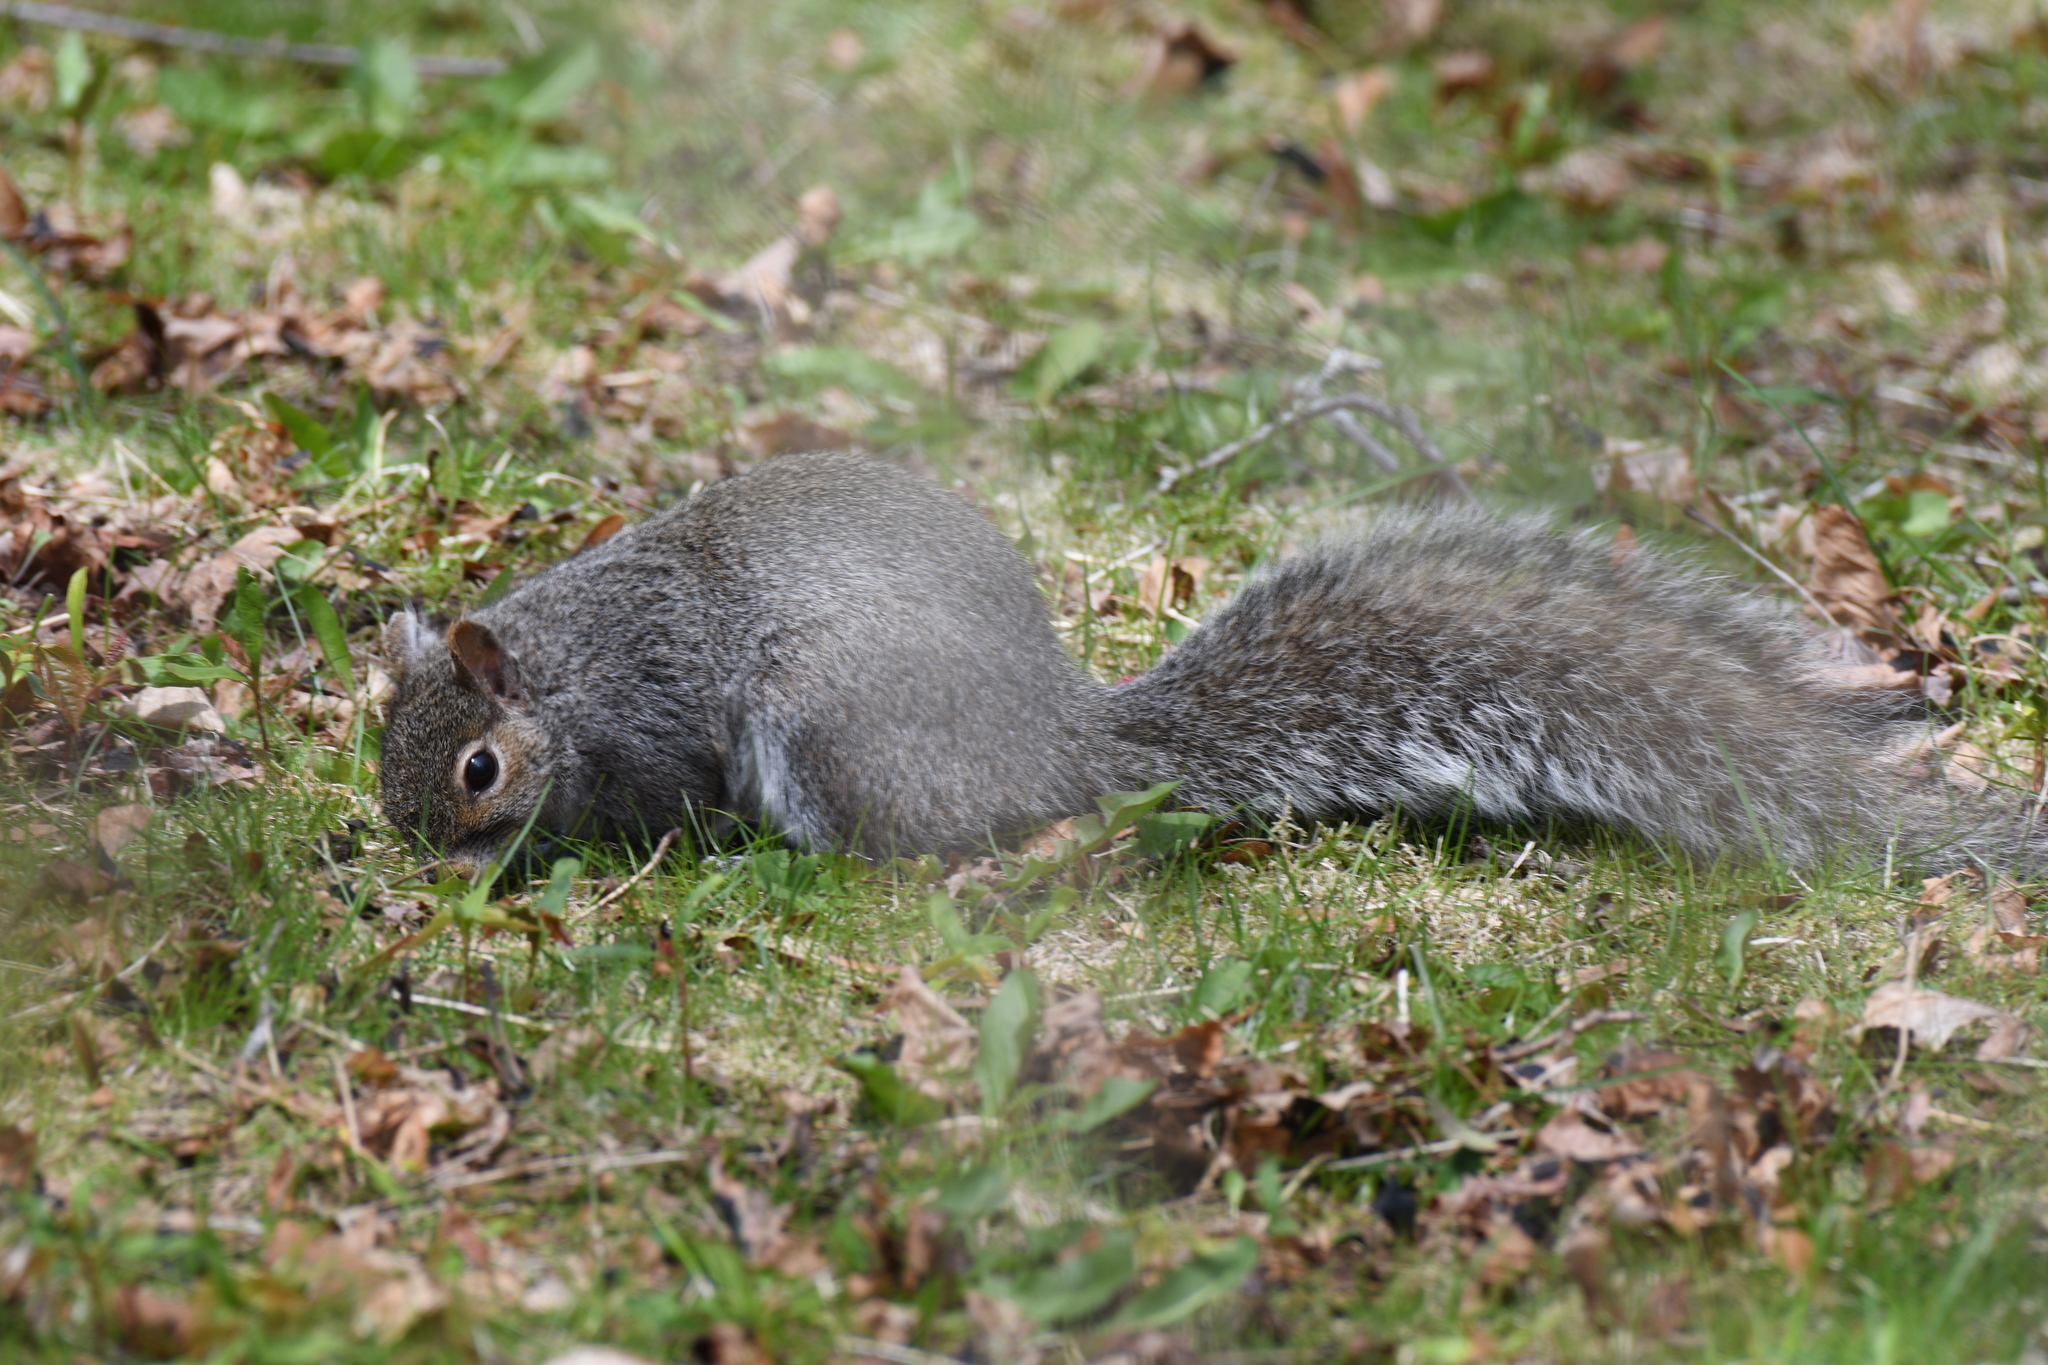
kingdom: Animalia
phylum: Chordata
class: Mammalia
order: Rodentia
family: Sciuridae
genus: Sciurus
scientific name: Sciurus carolinensis
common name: Eastern gray squirrel
